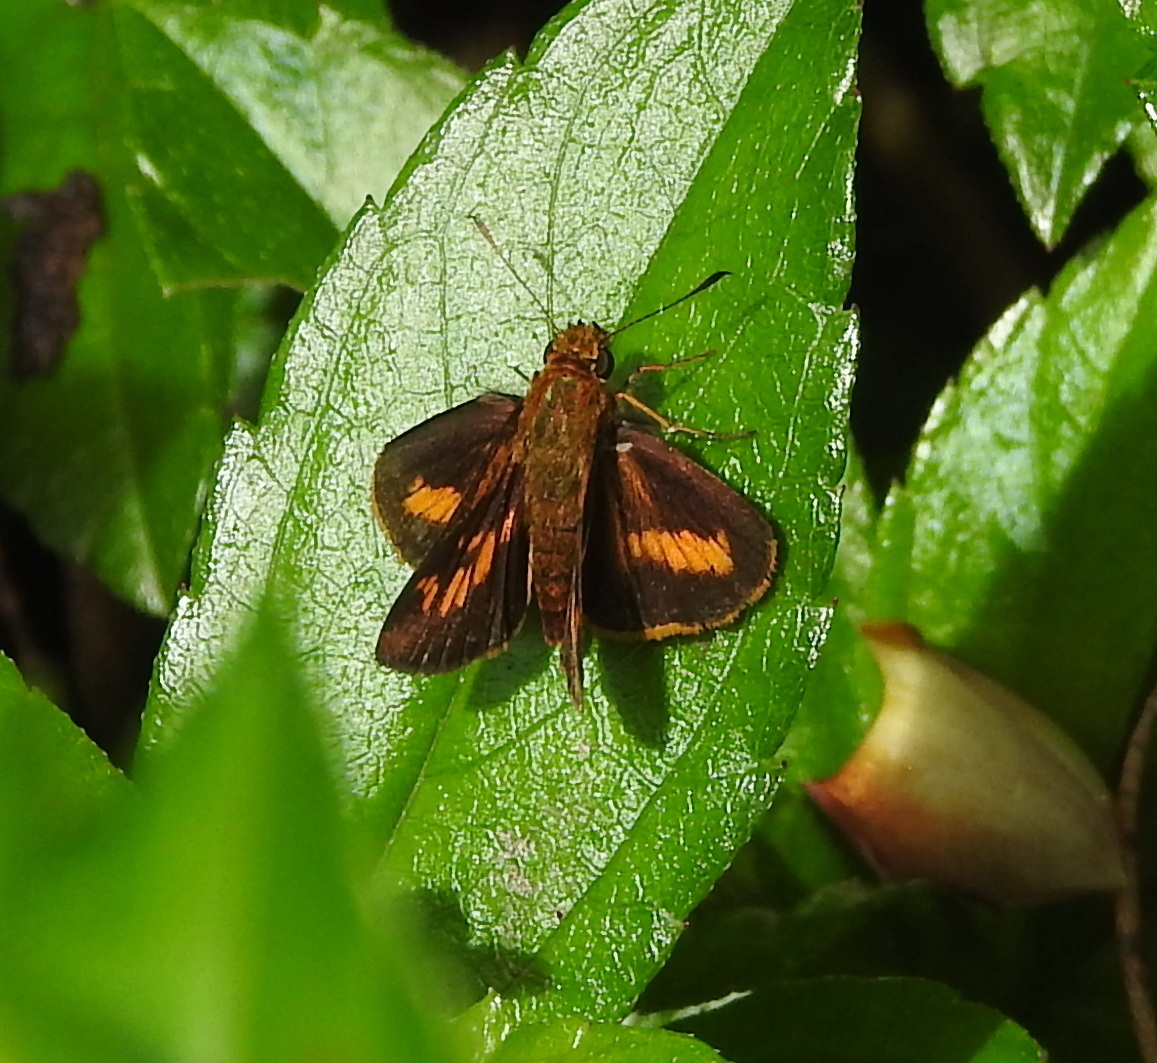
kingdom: Animalia
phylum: Arthropoda
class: Insecta
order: Lepidoptera
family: Hesperiidae
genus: Oriens
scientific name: Oriens concinna
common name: Sahyadri dartlet
